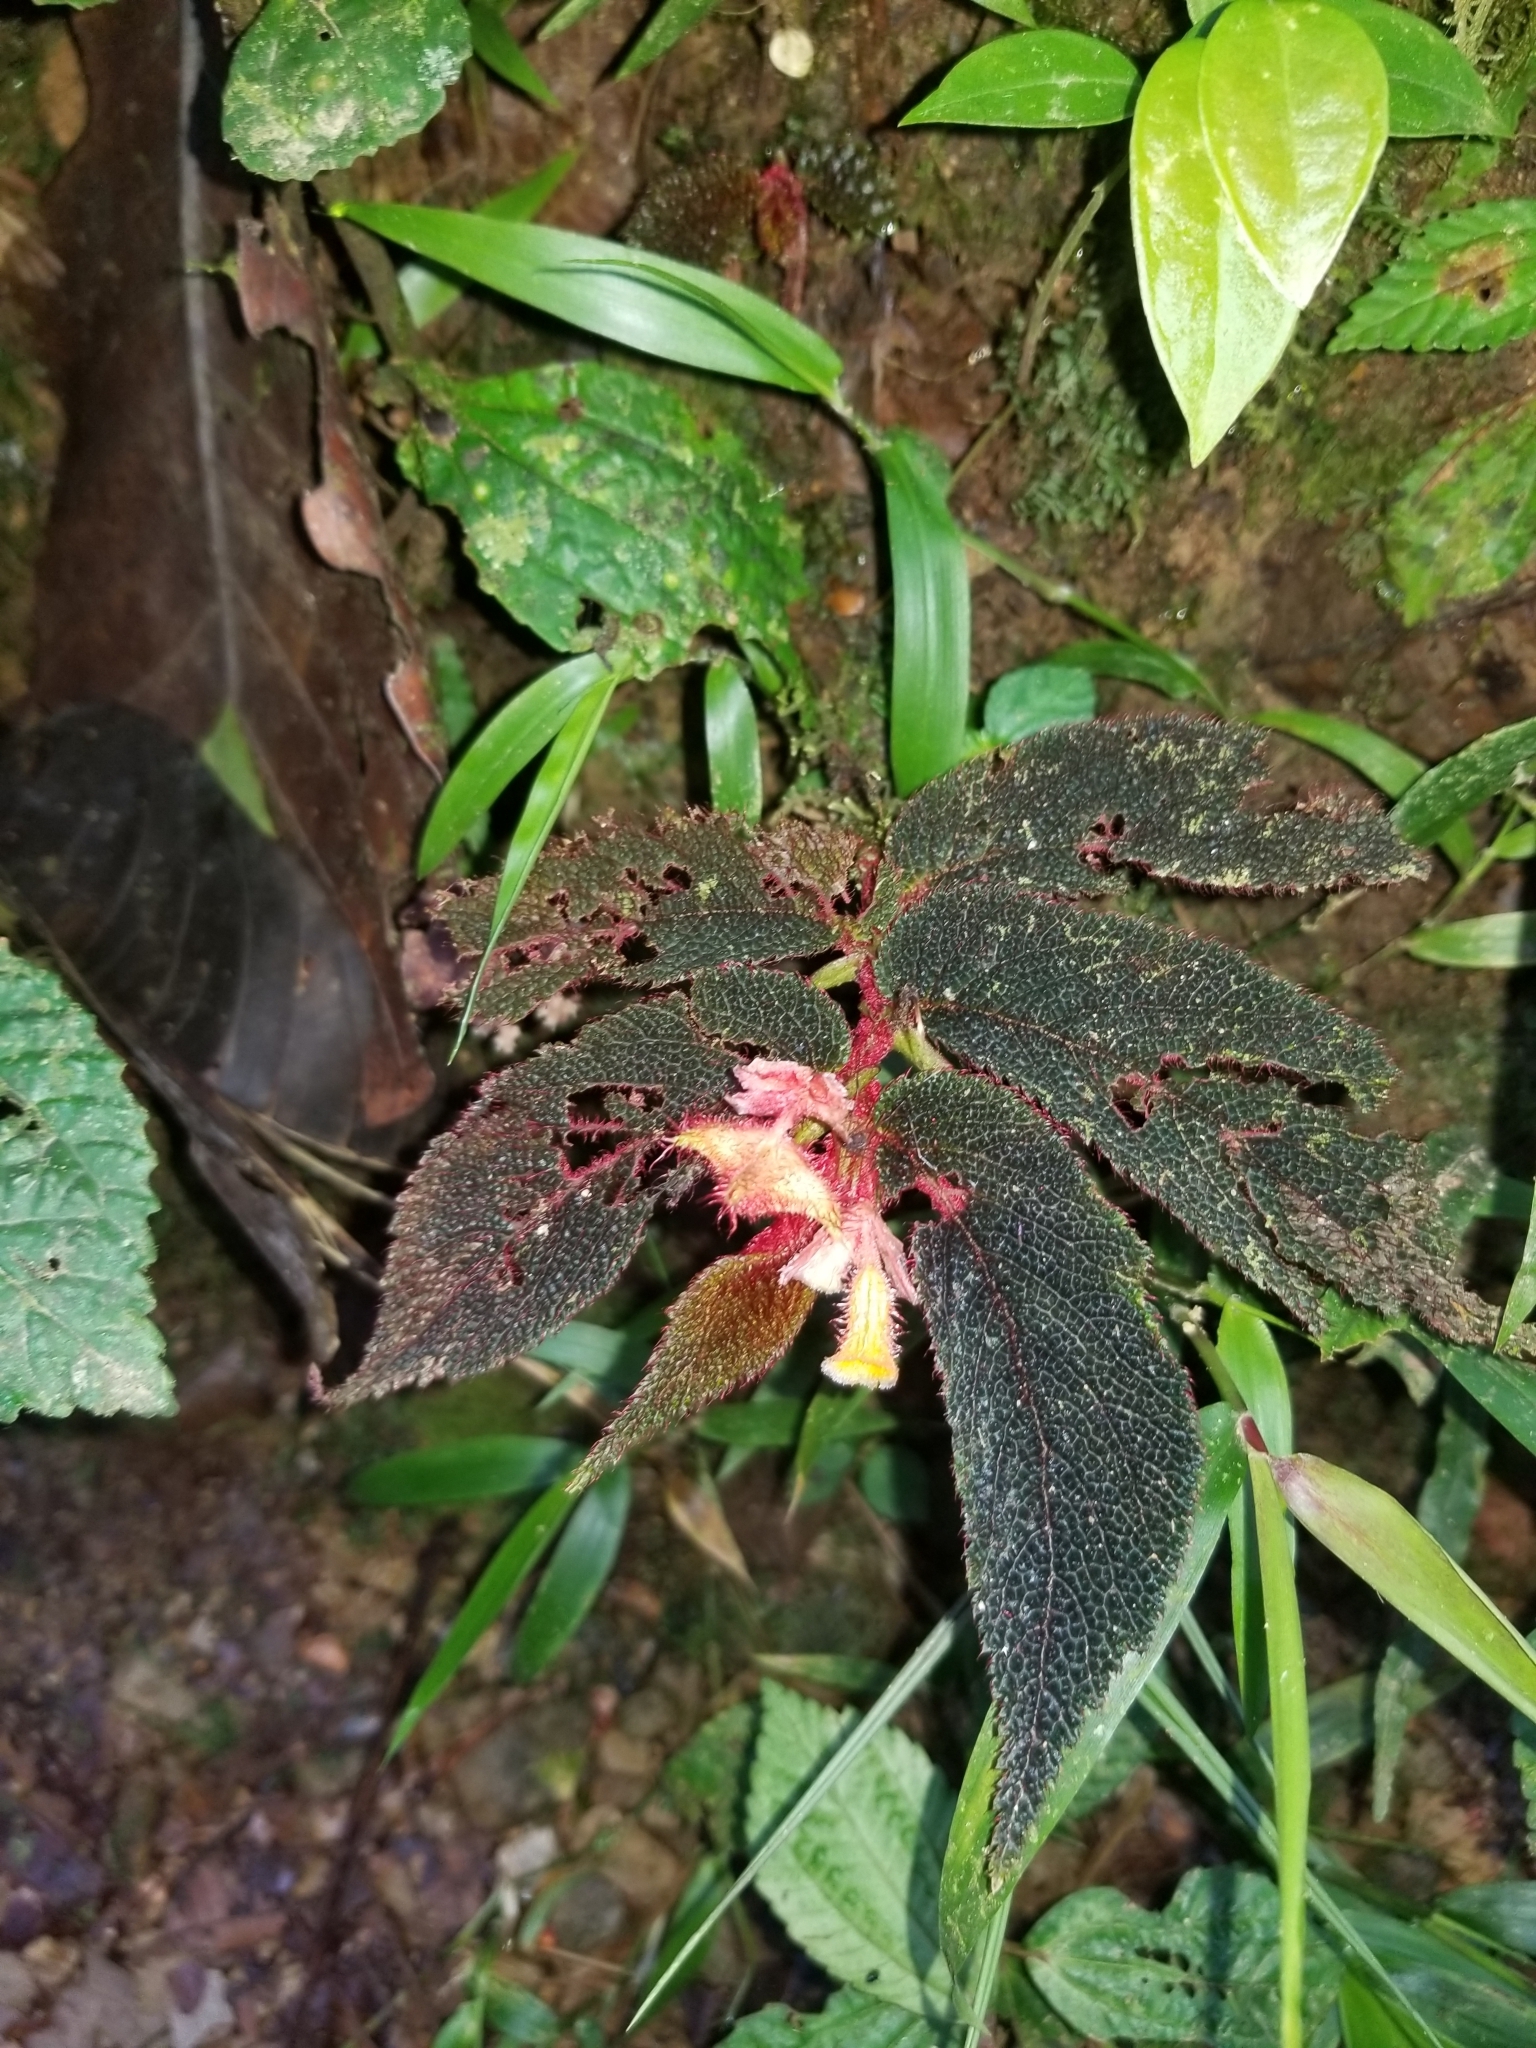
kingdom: Plantae
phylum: Tracheophyta
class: Magnoliopsida
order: Cucurbitales
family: Begoniaceae
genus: Begonia
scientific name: Begonia lehmannii
